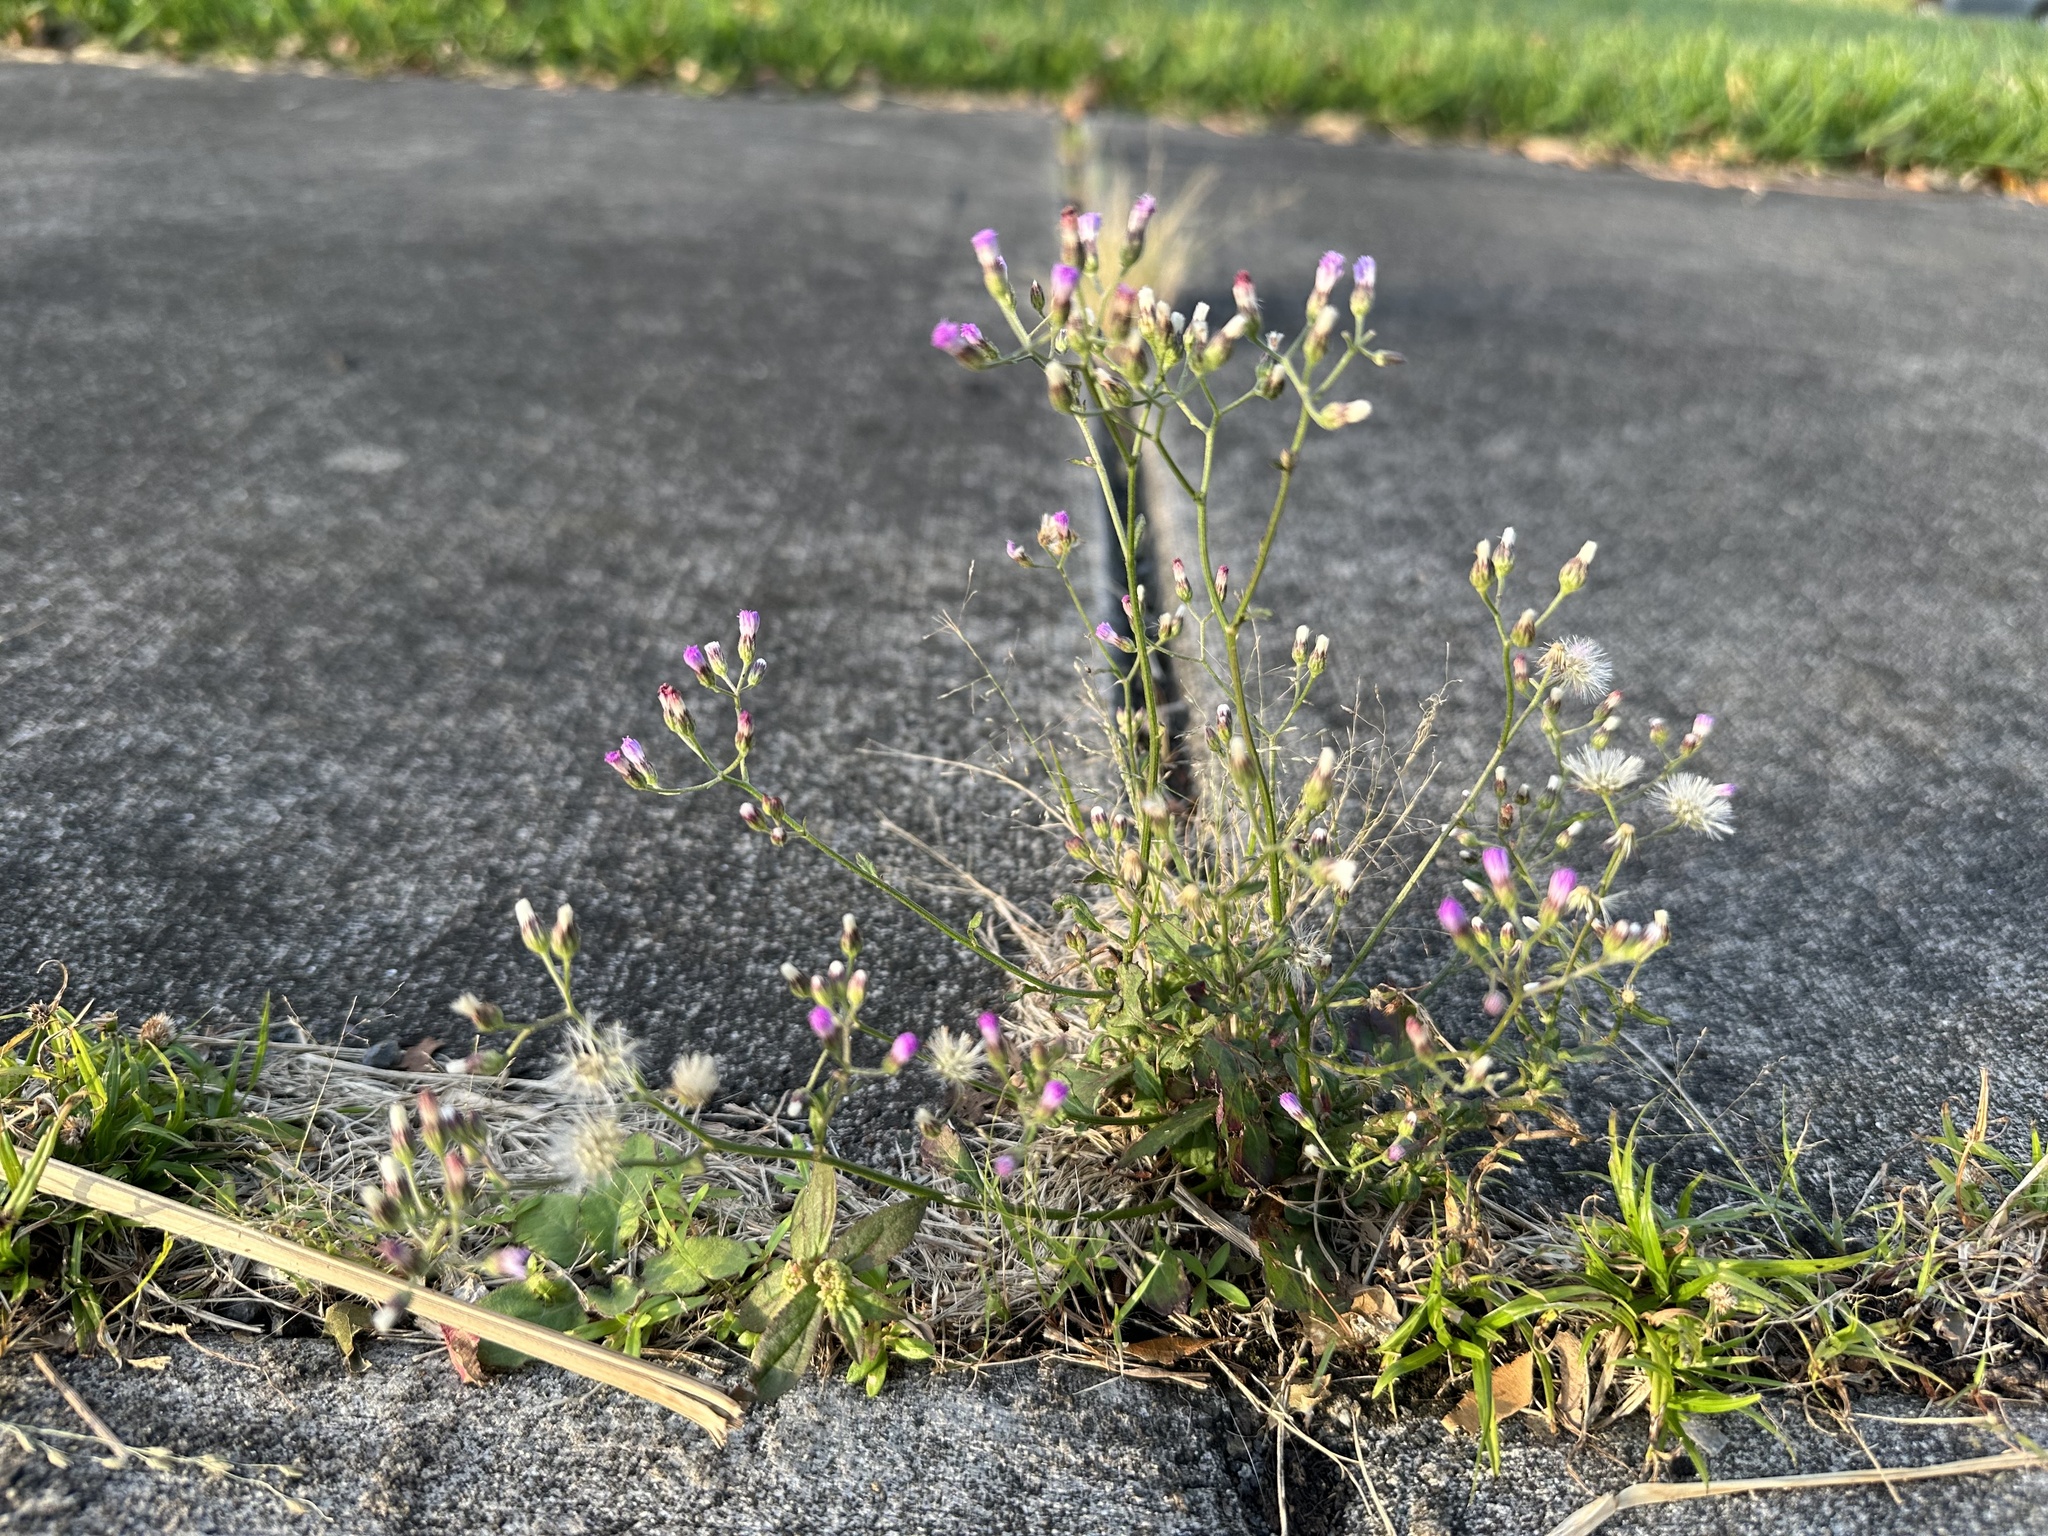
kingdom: Plantae
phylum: Tracheophyta
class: Magnoliopsida
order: Asterales
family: Asteraceae
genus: Cyanthillium
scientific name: Cyanthillium cinereum
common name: Little ironweed
